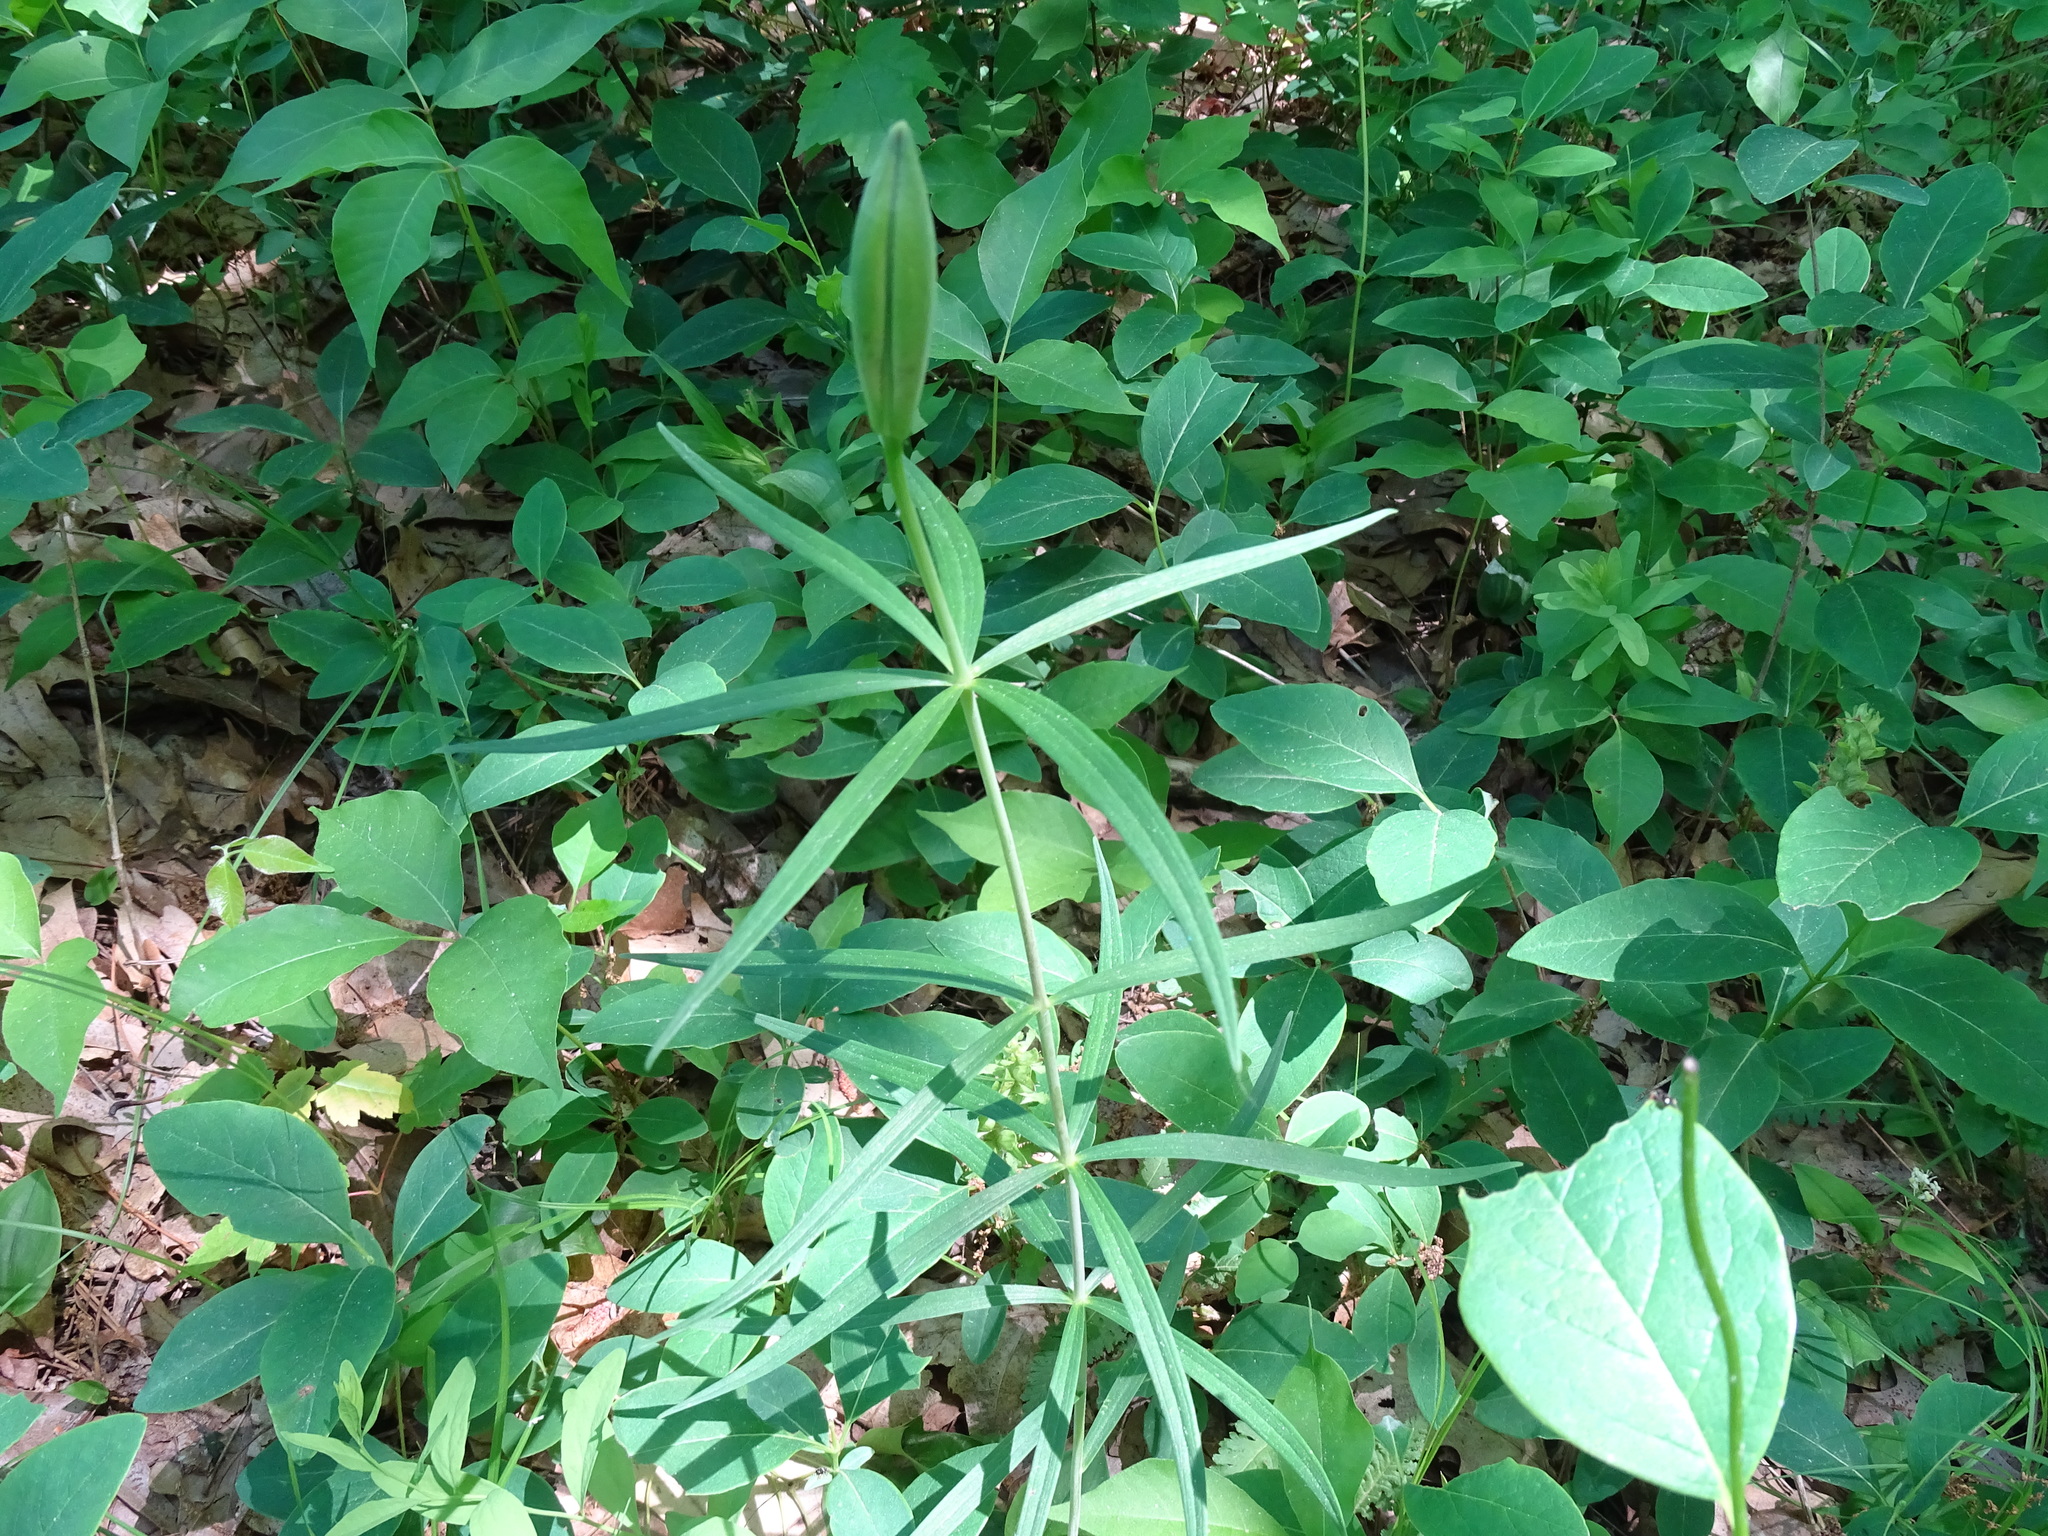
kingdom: Plantae
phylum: Tracheophyta
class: Liliopsida
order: Liliales
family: Liliaceae
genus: Lilium
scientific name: Lilium philadelphicum
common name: Red lily
